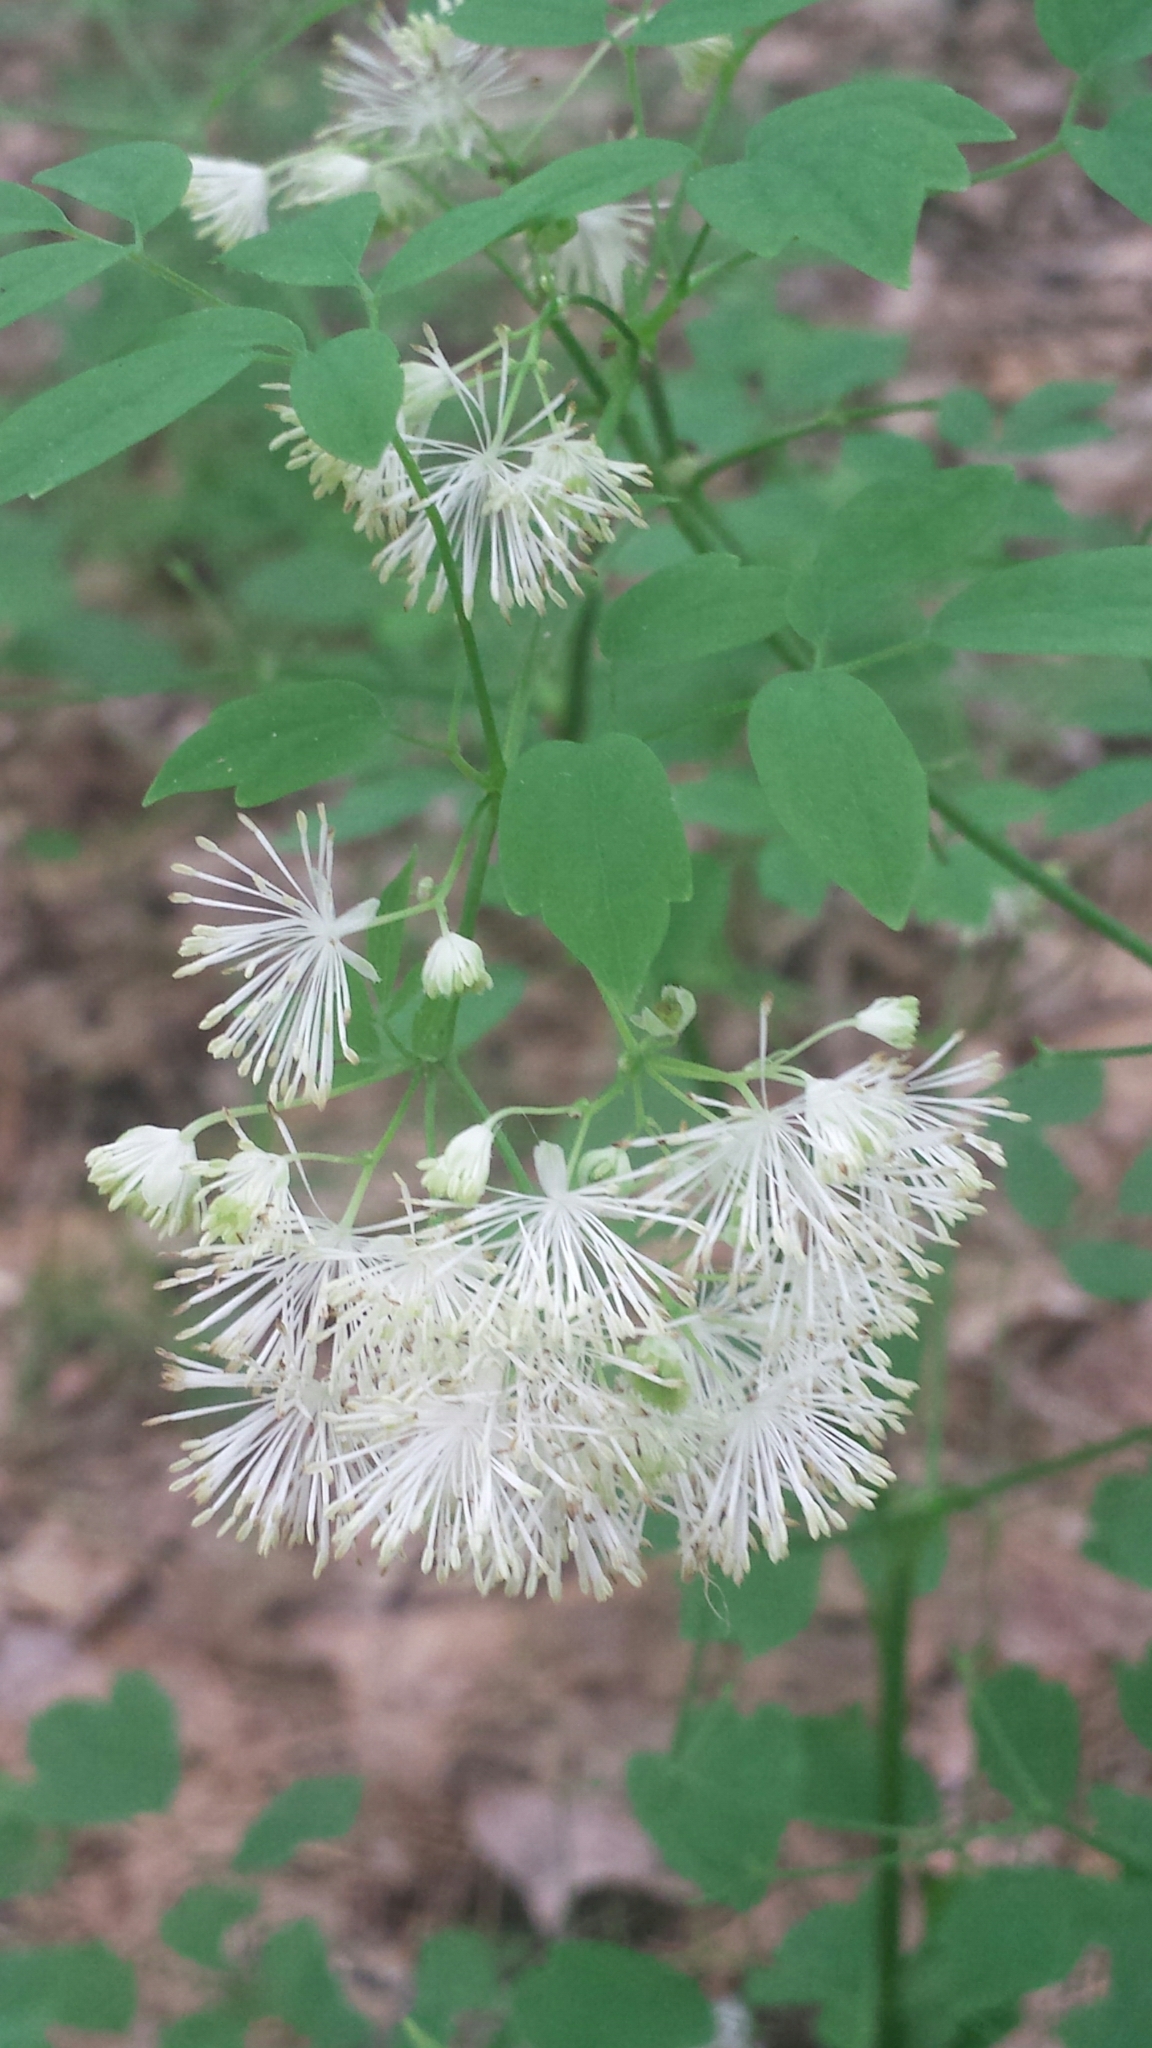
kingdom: Plantae
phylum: Tracheophyta
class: Magnoliopsida
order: Ranunculales
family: Ranunculaceae
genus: Thalictrum
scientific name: Thalictrum pubescens
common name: King-of-the-meadow
